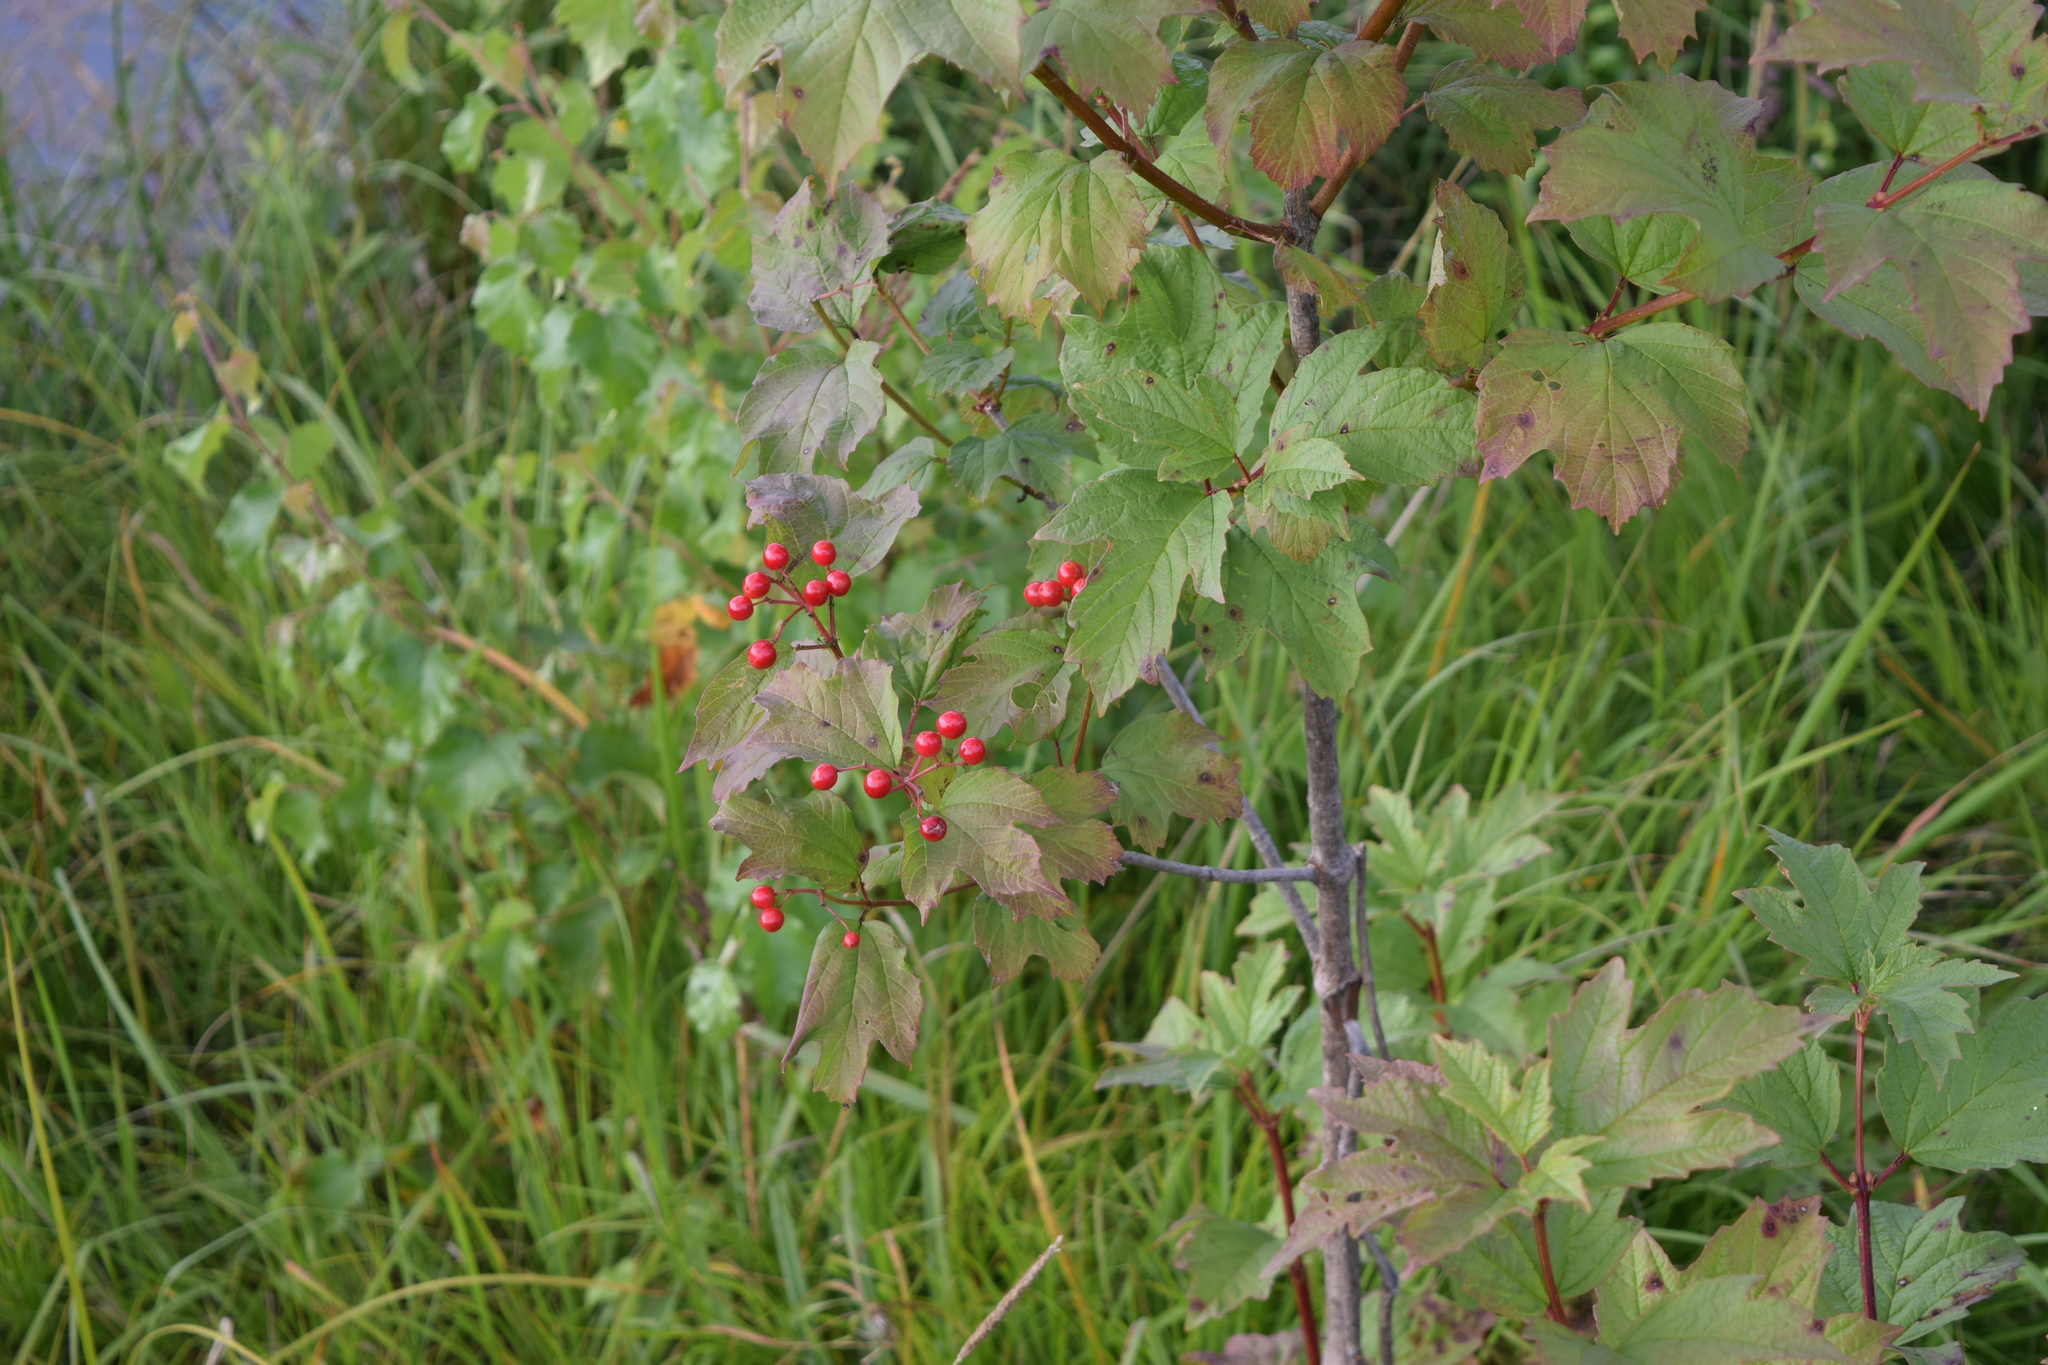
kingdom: Plantae
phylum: Tracheophyta
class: Magnoliopsida
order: Dipsacales
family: Viburnaceae
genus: Viburnum
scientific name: Viburnum opulus
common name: Guelder-rose
